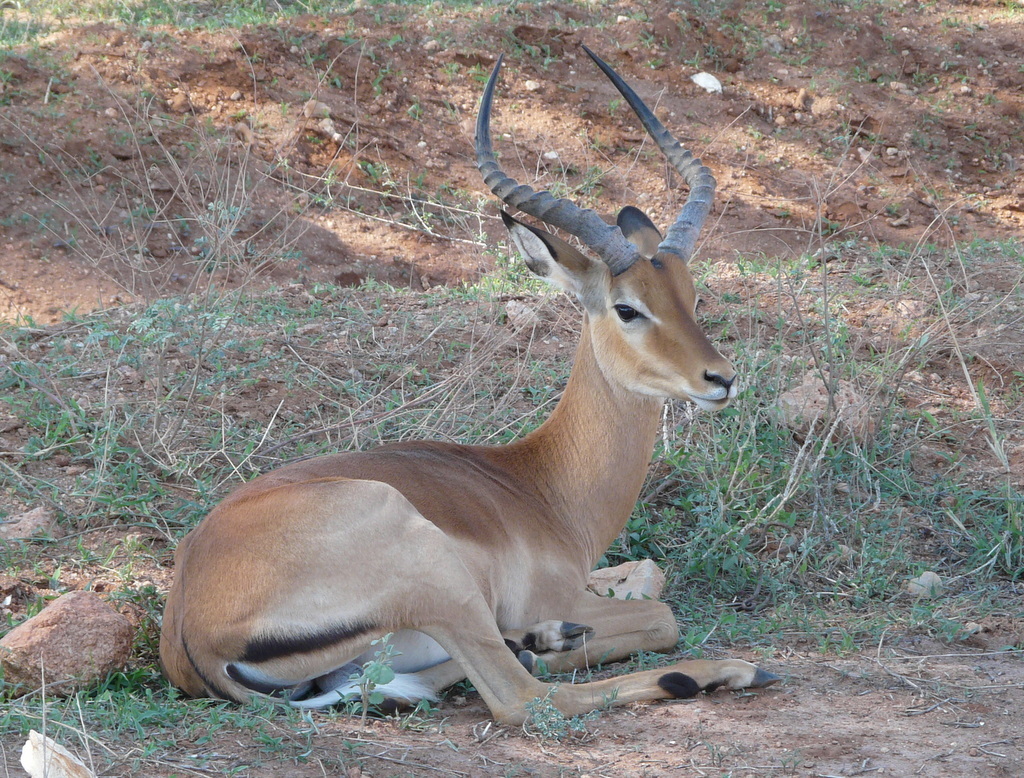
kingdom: Animalia
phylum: Chordata
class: Mammalia
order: Artiodactyla
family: Bovidae
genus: Aepyceros
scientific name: Aepyceros melampus
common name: Impala
